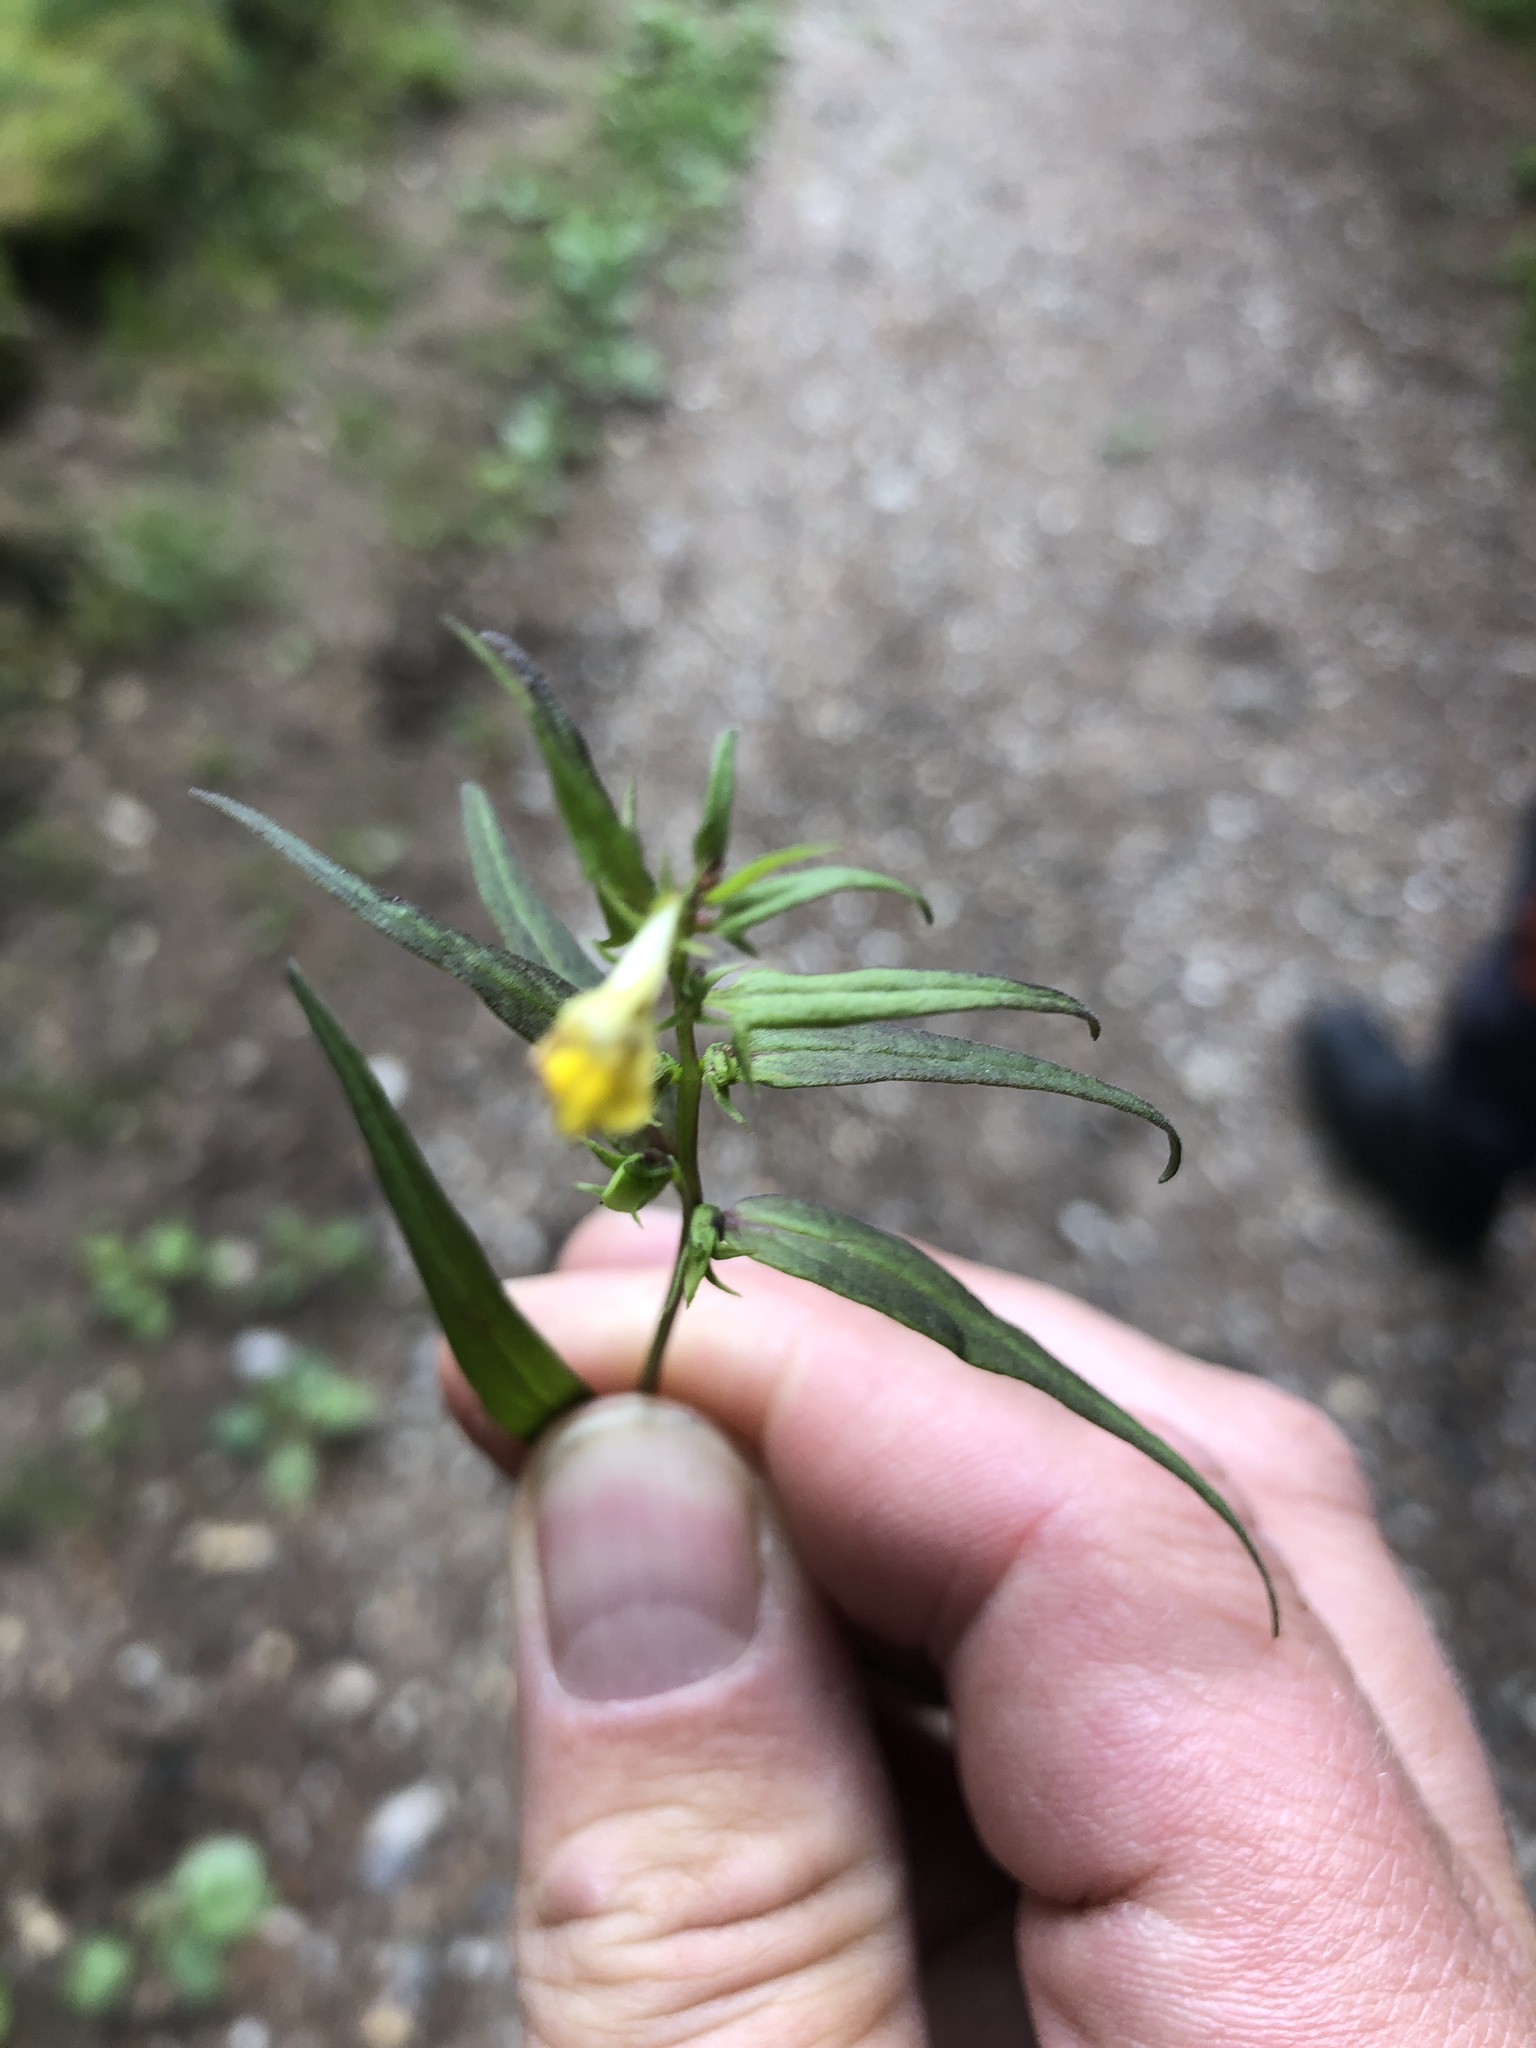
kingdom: Plantae
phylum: Tracheophyta
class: Magnoliopsida
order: Lamiales
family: Orobanchaceae
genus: Melampyrum
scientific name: Melampyrum pratense
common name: Common cow-wheat
